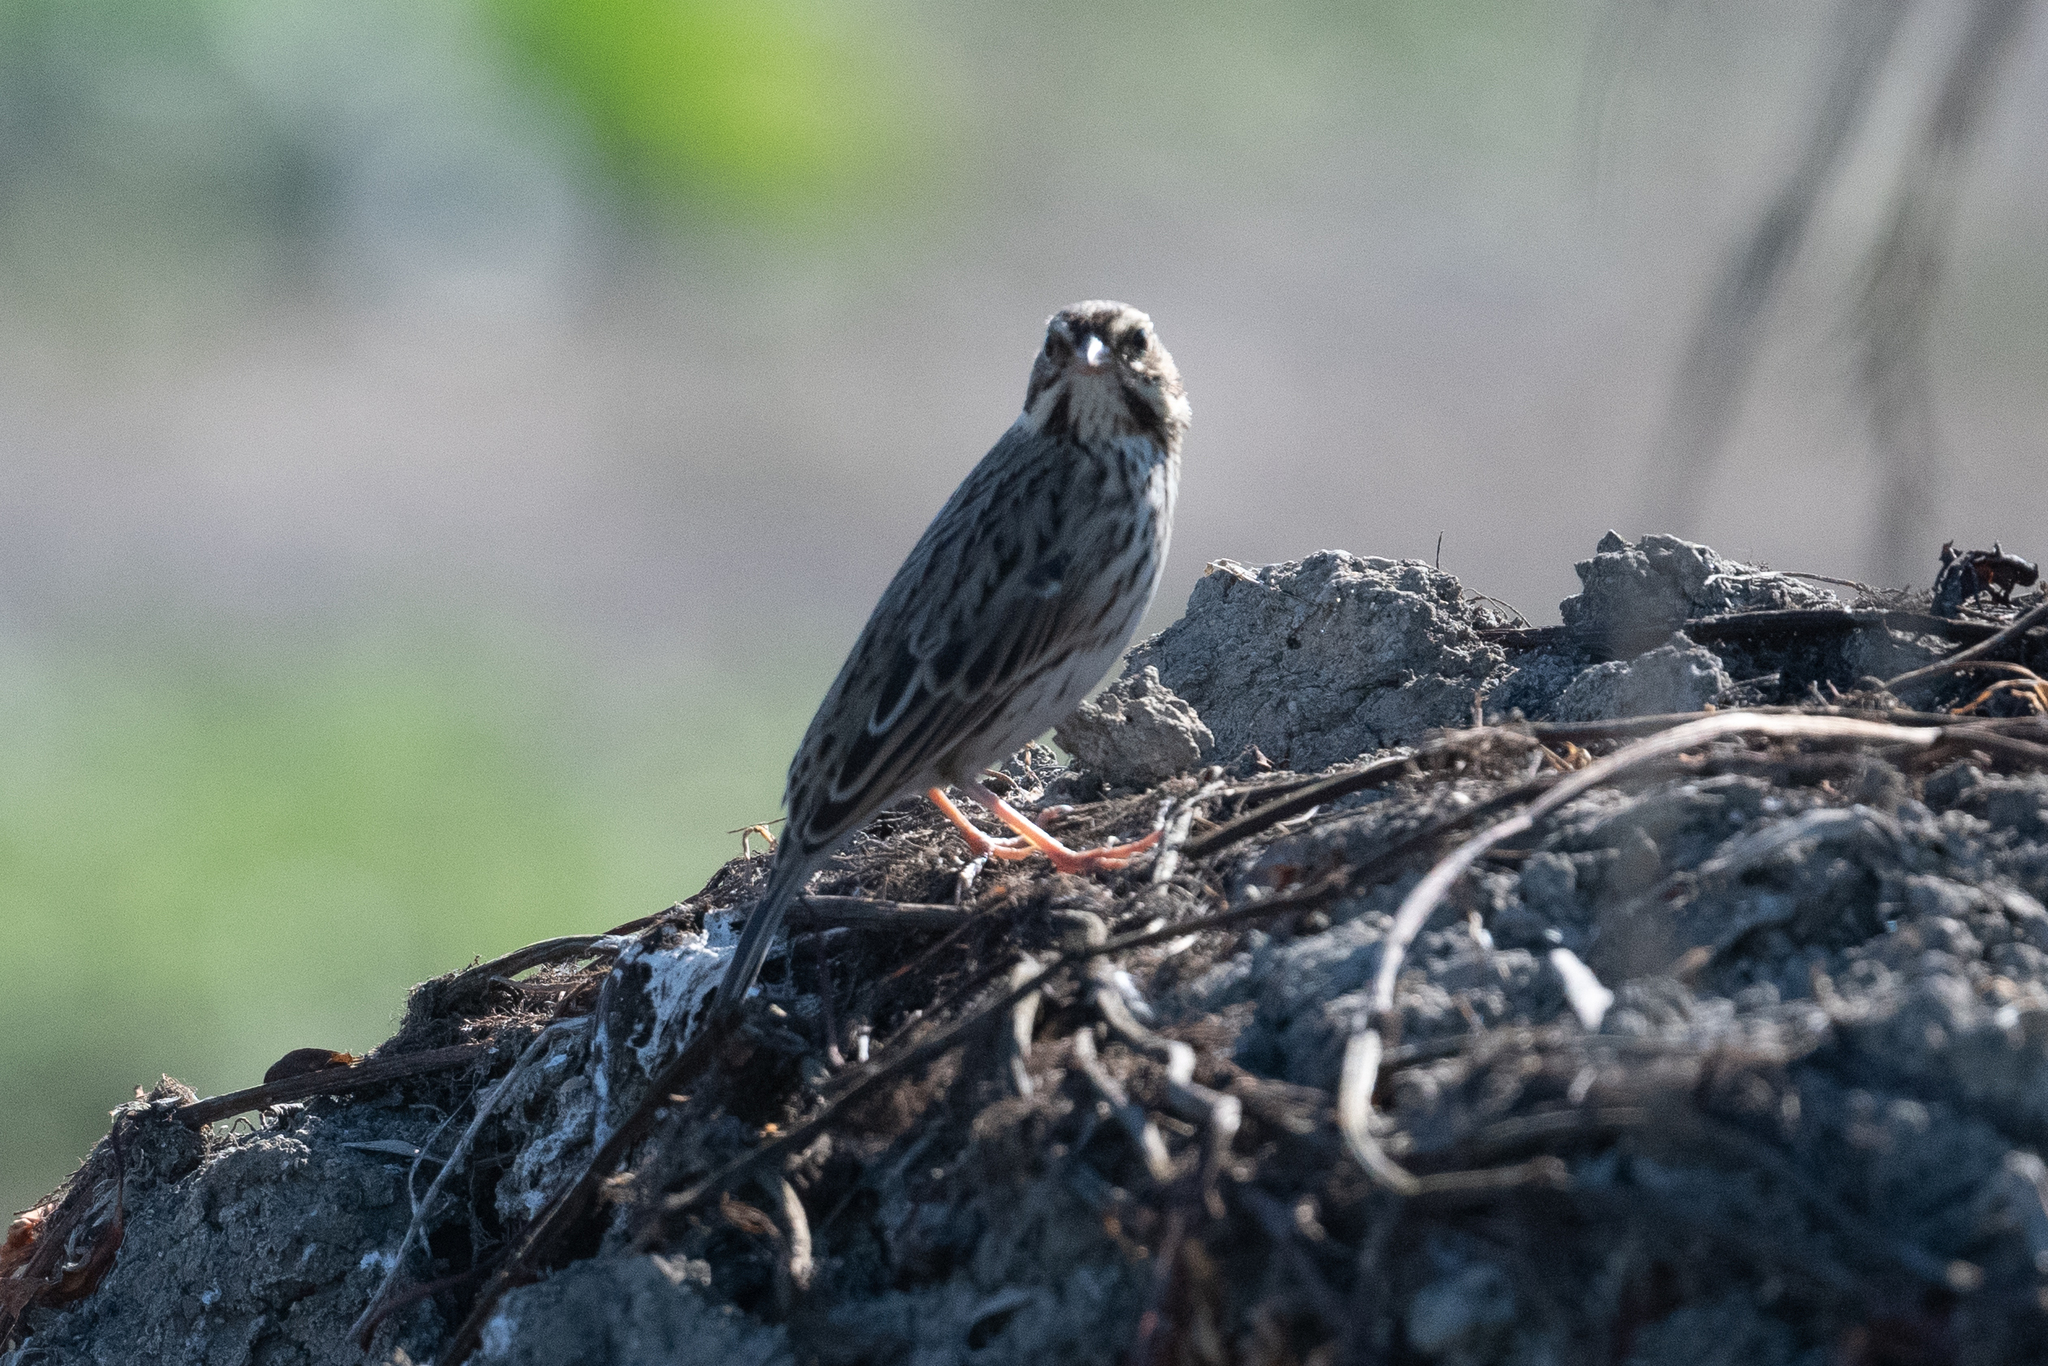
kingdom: Animalia
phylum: Chordata
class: Aves
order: Passeriformes
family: Passerellidae
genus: Passerculus
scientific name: Passerculus sandwichensis
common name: Savannah sparrow
